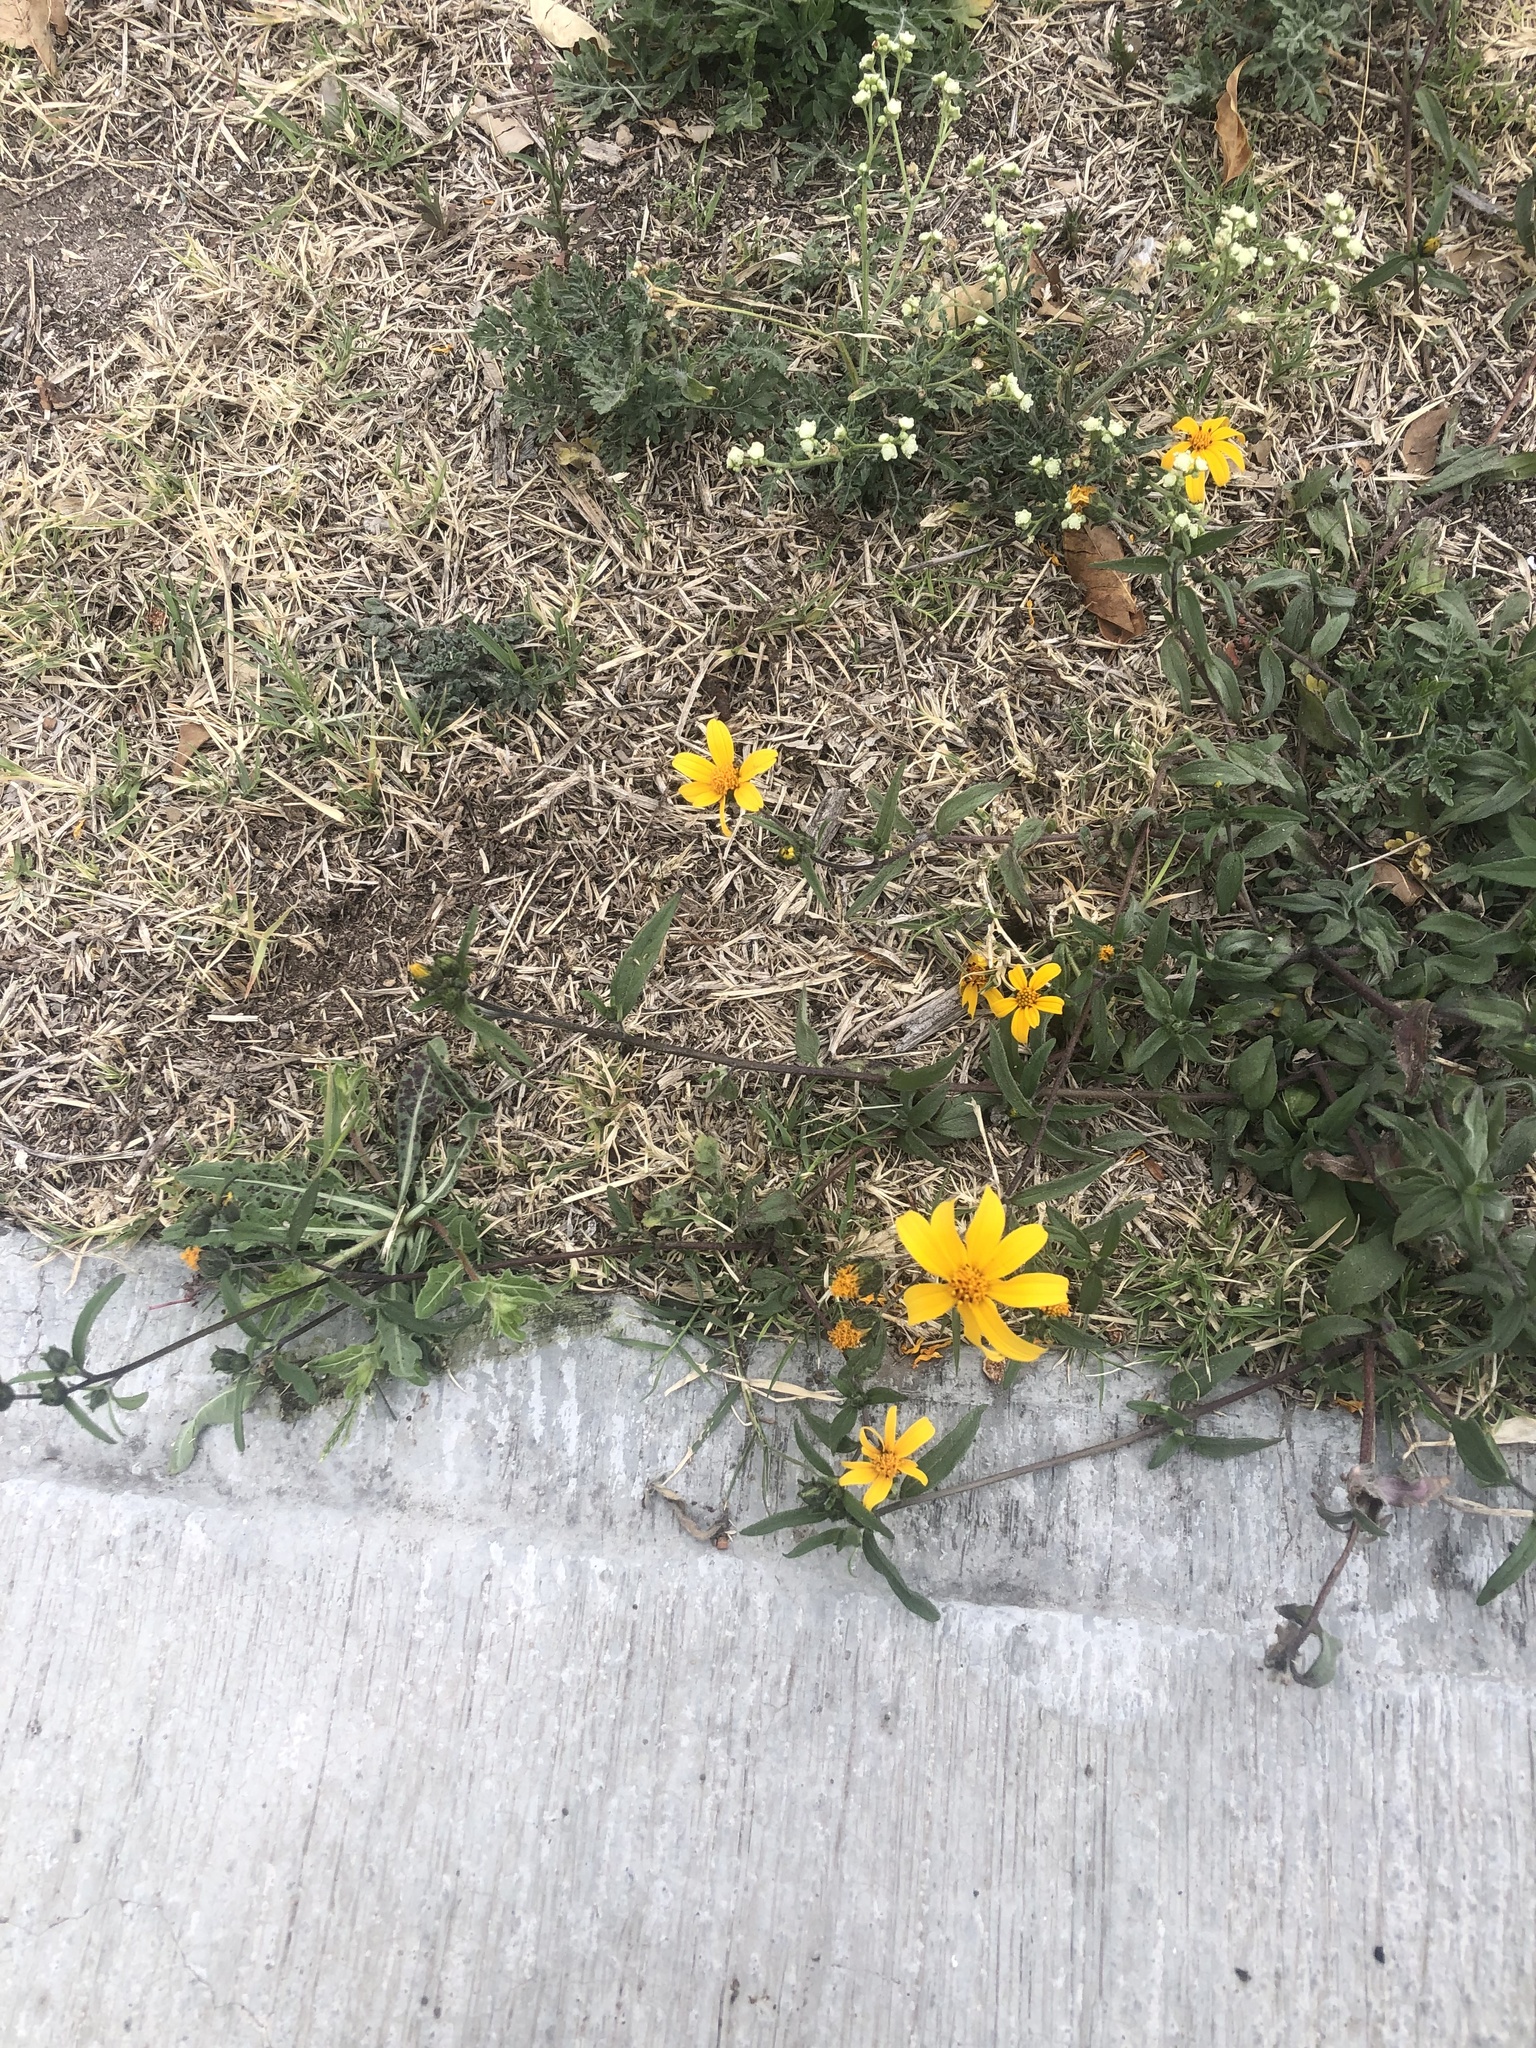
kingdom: Plantae
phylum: Tracheophyta
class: Magnoliopsida
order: Asterales
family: Asteraceae
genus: Aldama
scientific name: Aldama dentata
